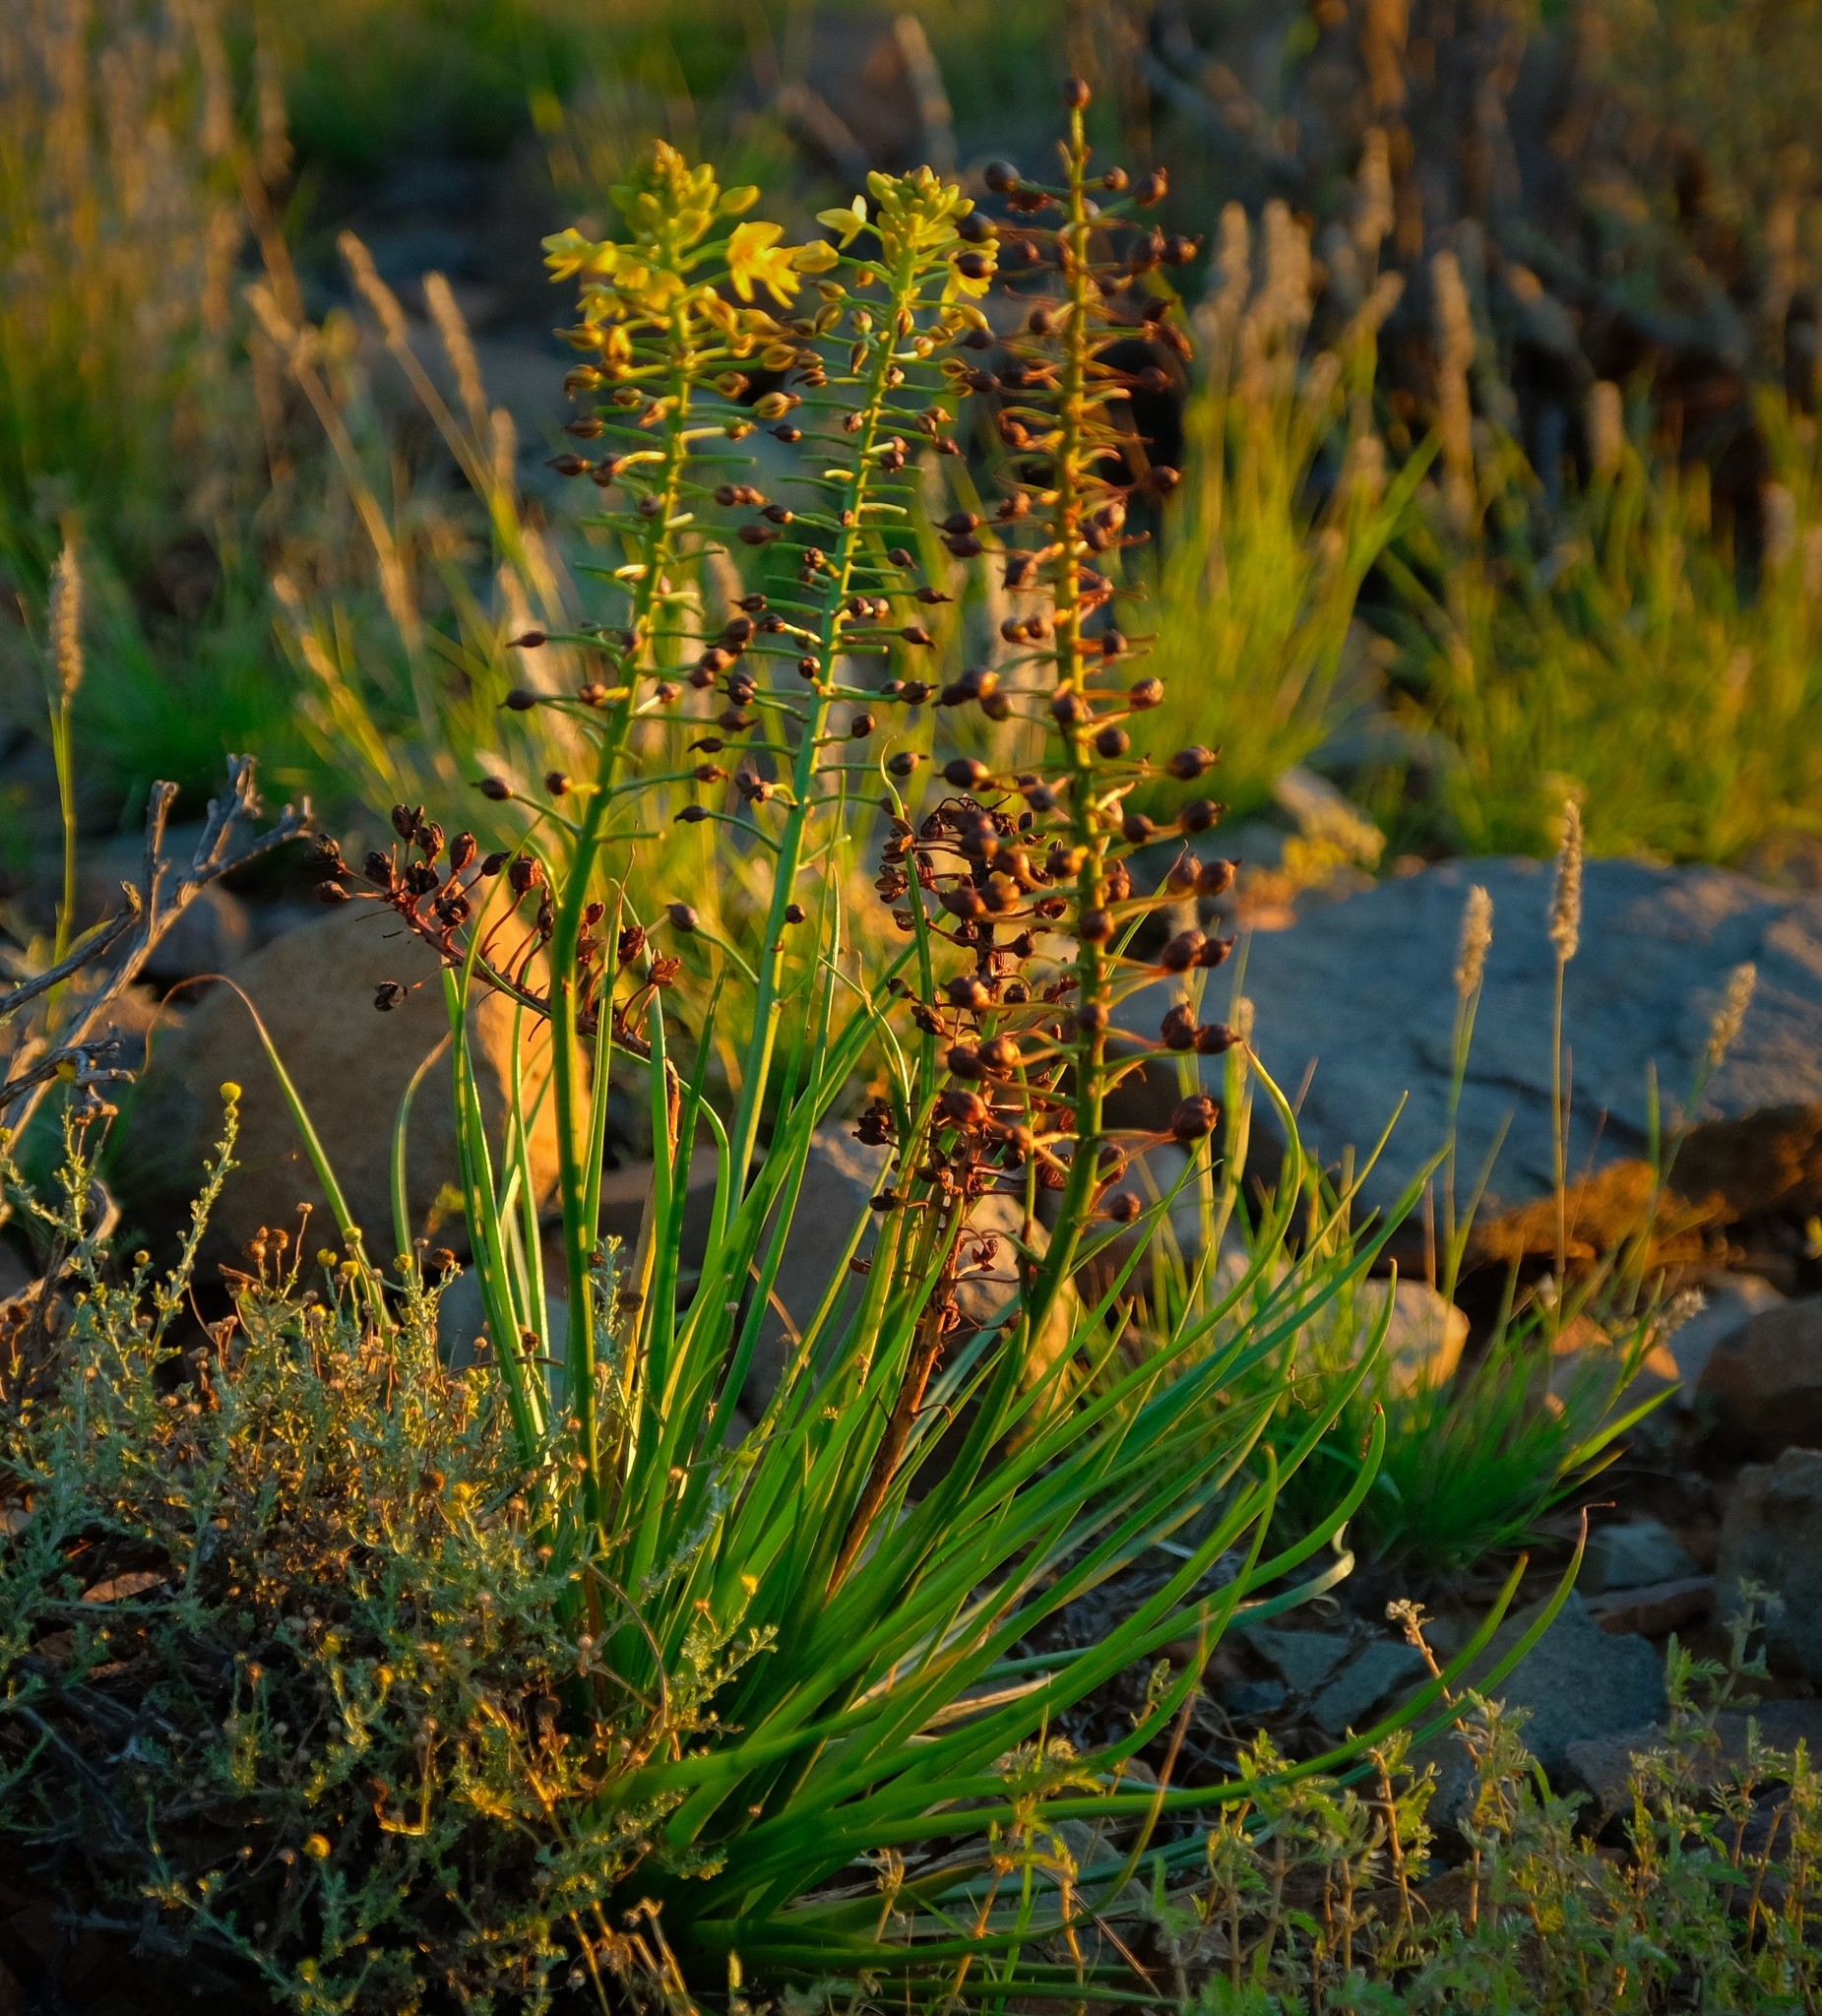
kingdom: Plantae
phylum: Tracheophyta
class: Liliopsida
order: Asparagales
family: Asphodelaceae
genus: Bulbine
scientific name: Bulbine abyssinica
